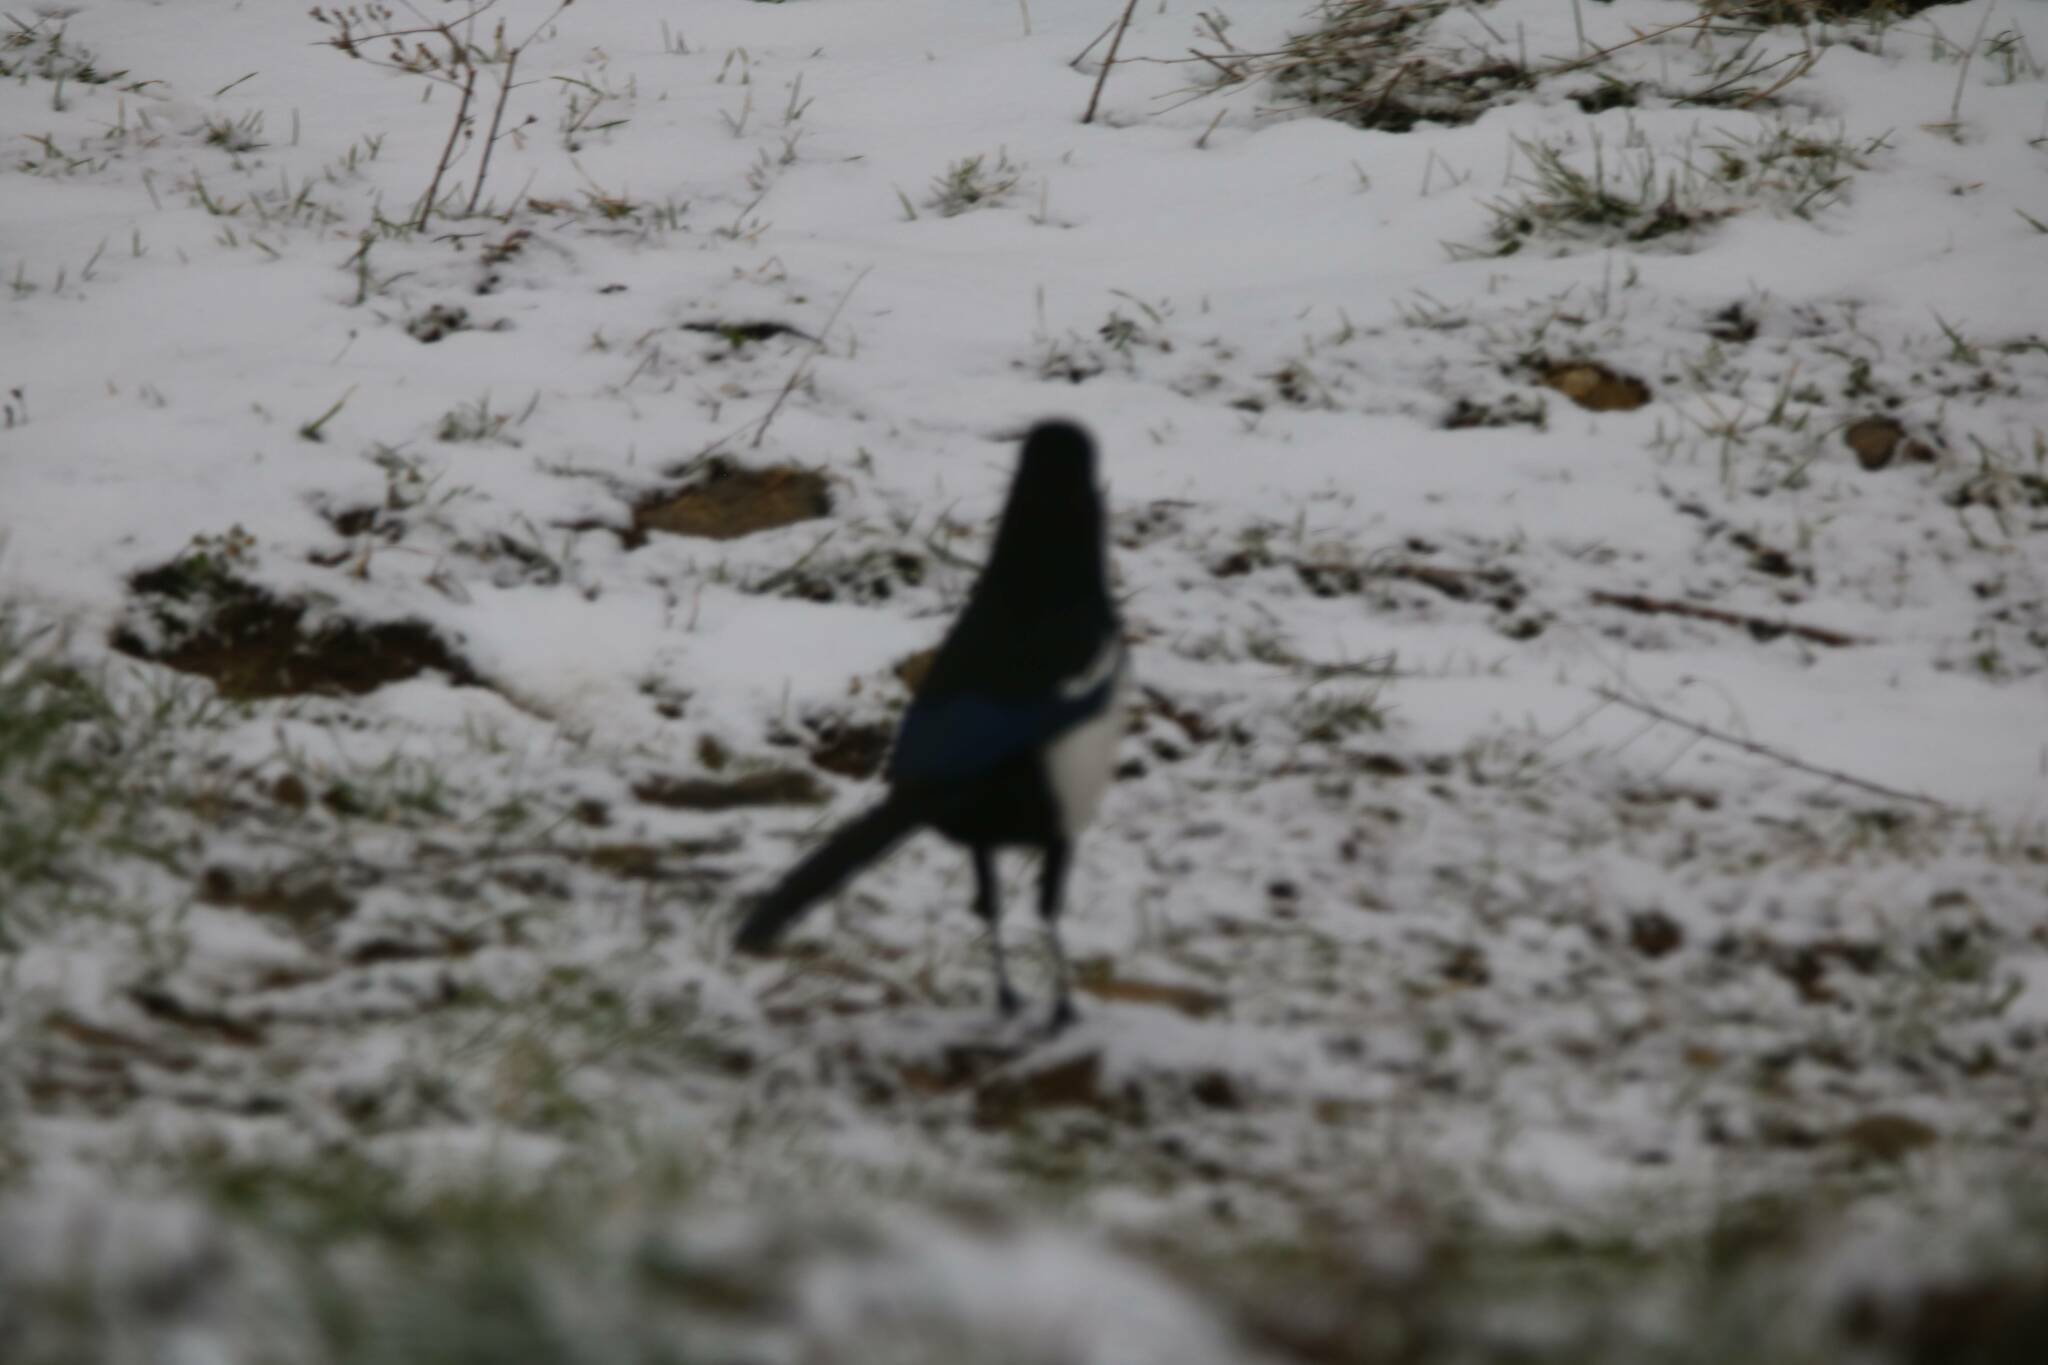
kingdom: Animalia
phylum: Chordata
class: Aves
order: Passeriformes
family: Corvidae
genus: Pica
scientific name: Pica mauritanica
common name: Maghreb magpie
